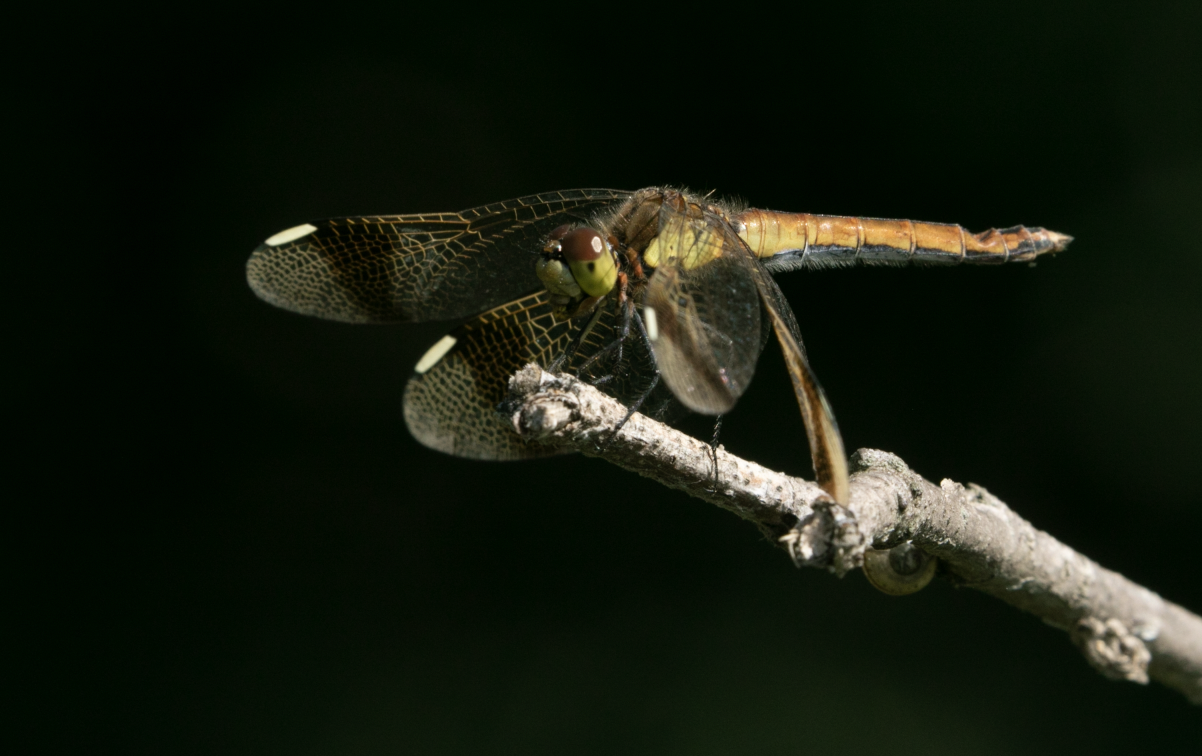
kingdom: Animalia
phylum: Arthropoda
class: Insecta
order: Odonata
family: Libellulidae
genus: Sympetrum
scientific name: Sympetrum pedemontanum
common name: Banded darter
